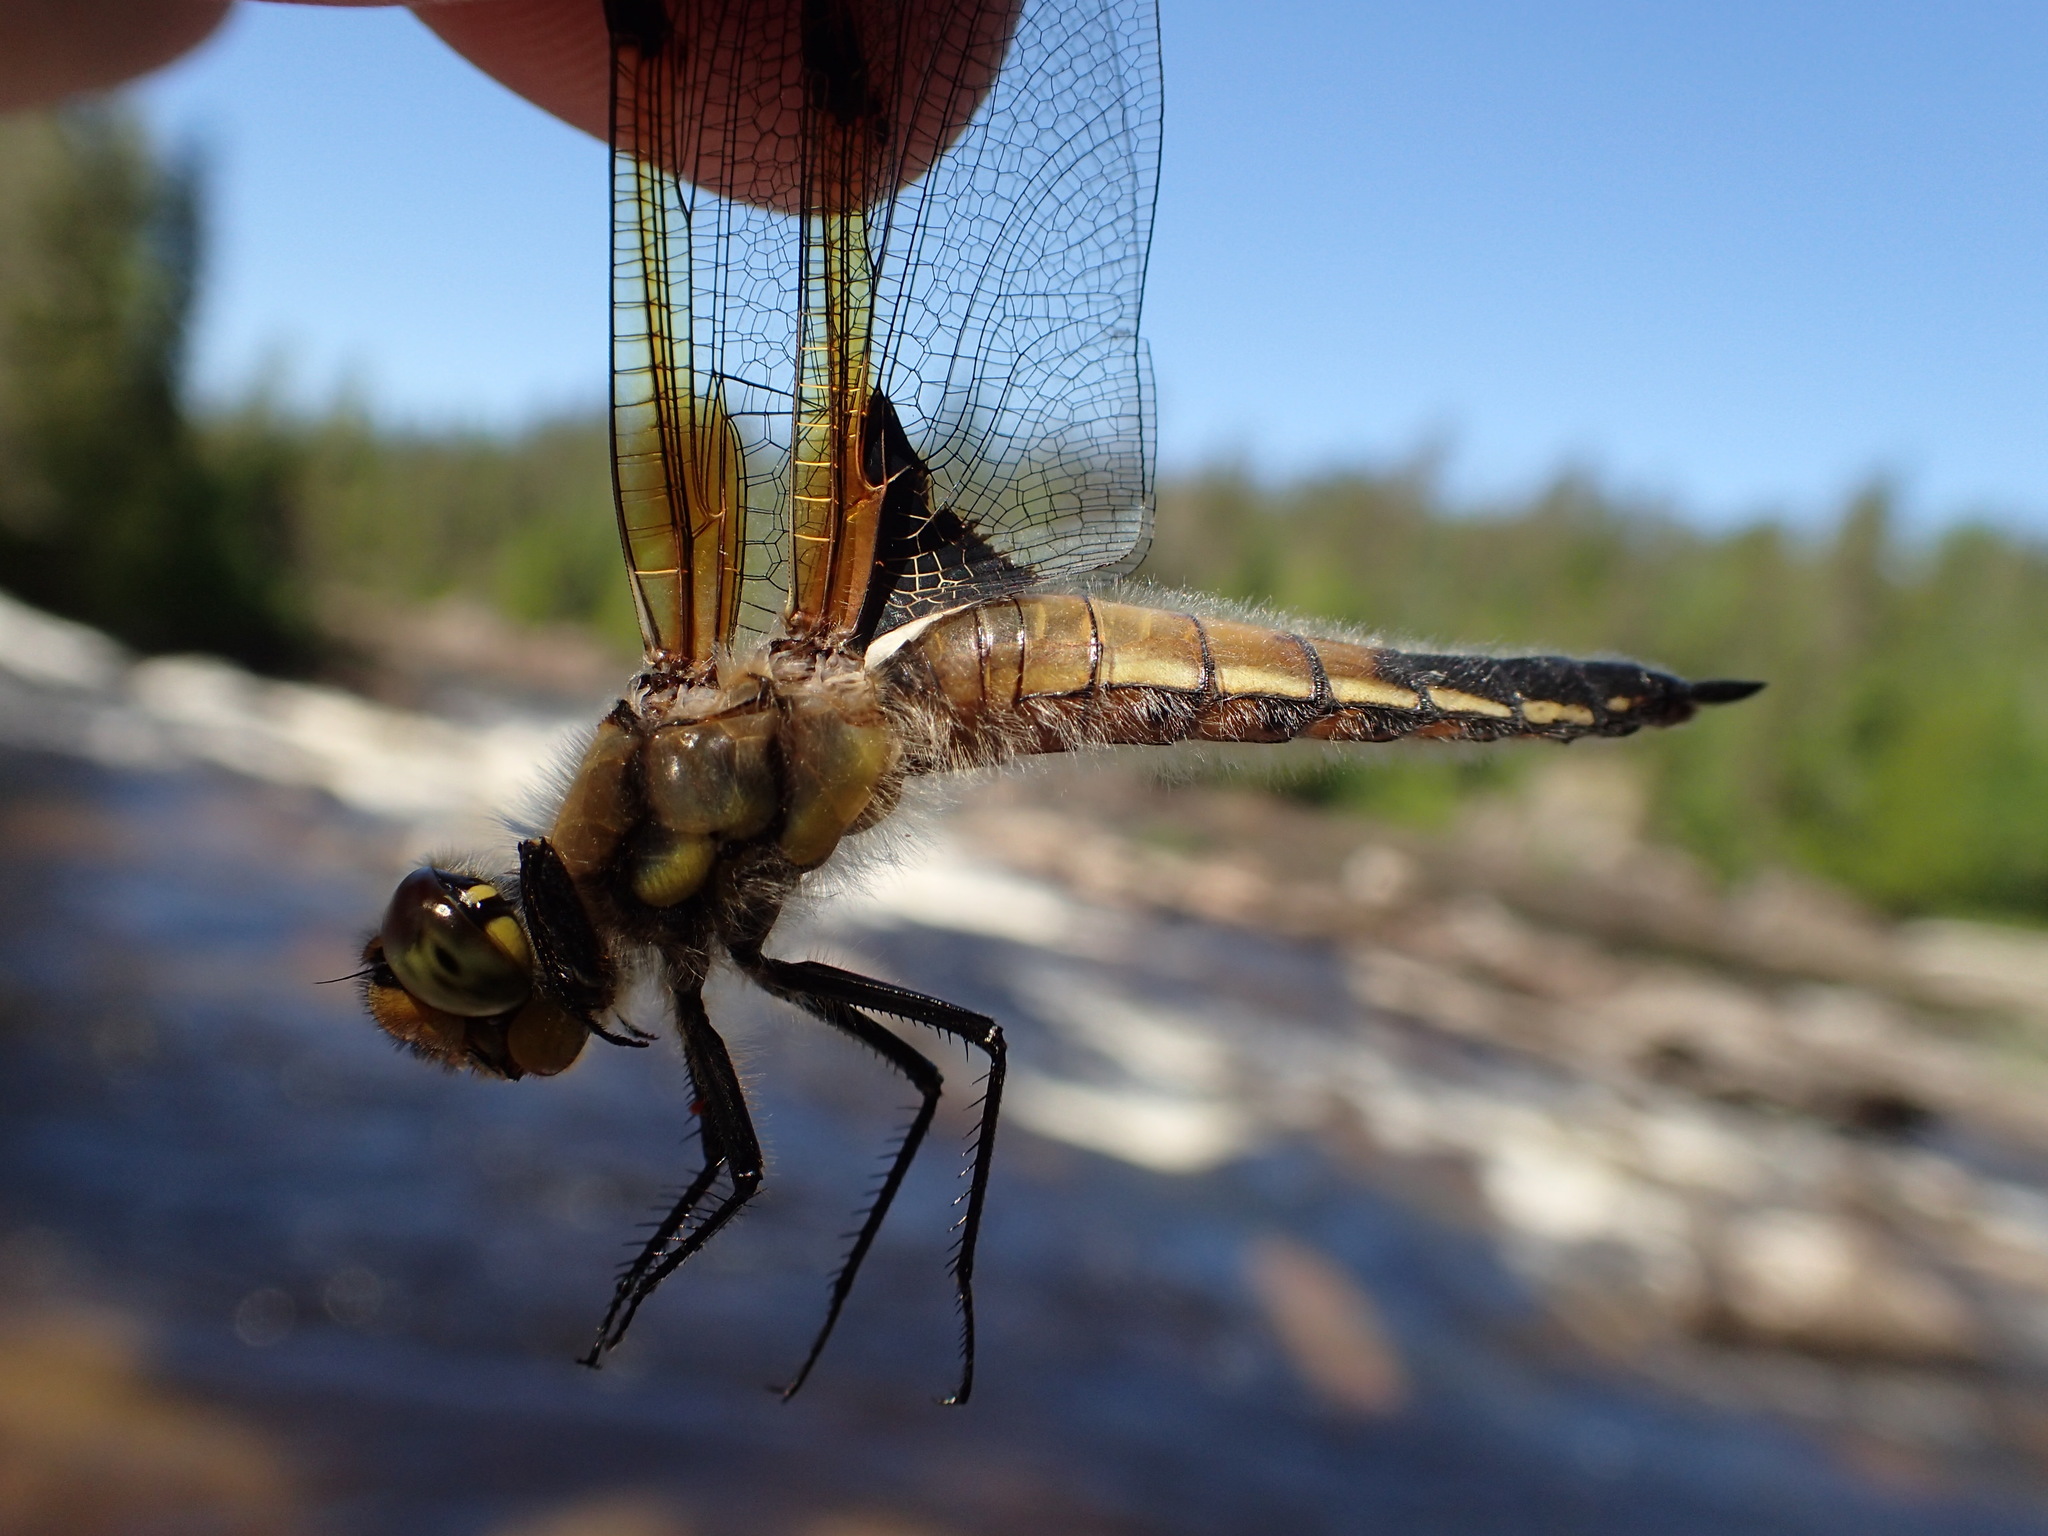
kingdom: Animalia
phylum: Arthropoda
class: Insecta
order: Odonata
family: Libellulidae
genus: Libellula
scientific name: Libellula quadrimaculata
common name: Four-spotted chaser
